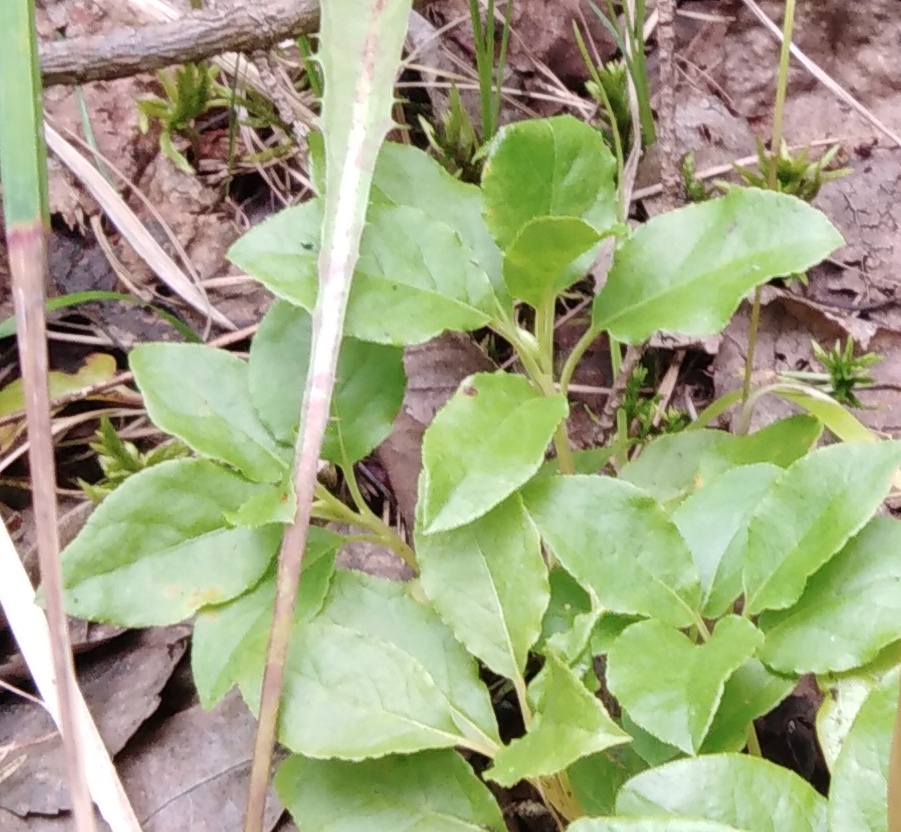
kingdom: Plantae
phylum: Tracheophyta
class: Magnoliopsida
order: Ericales
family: Ericaceae
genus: Orthilia
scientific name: Orthilia secunda
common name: One-sided orthilia
